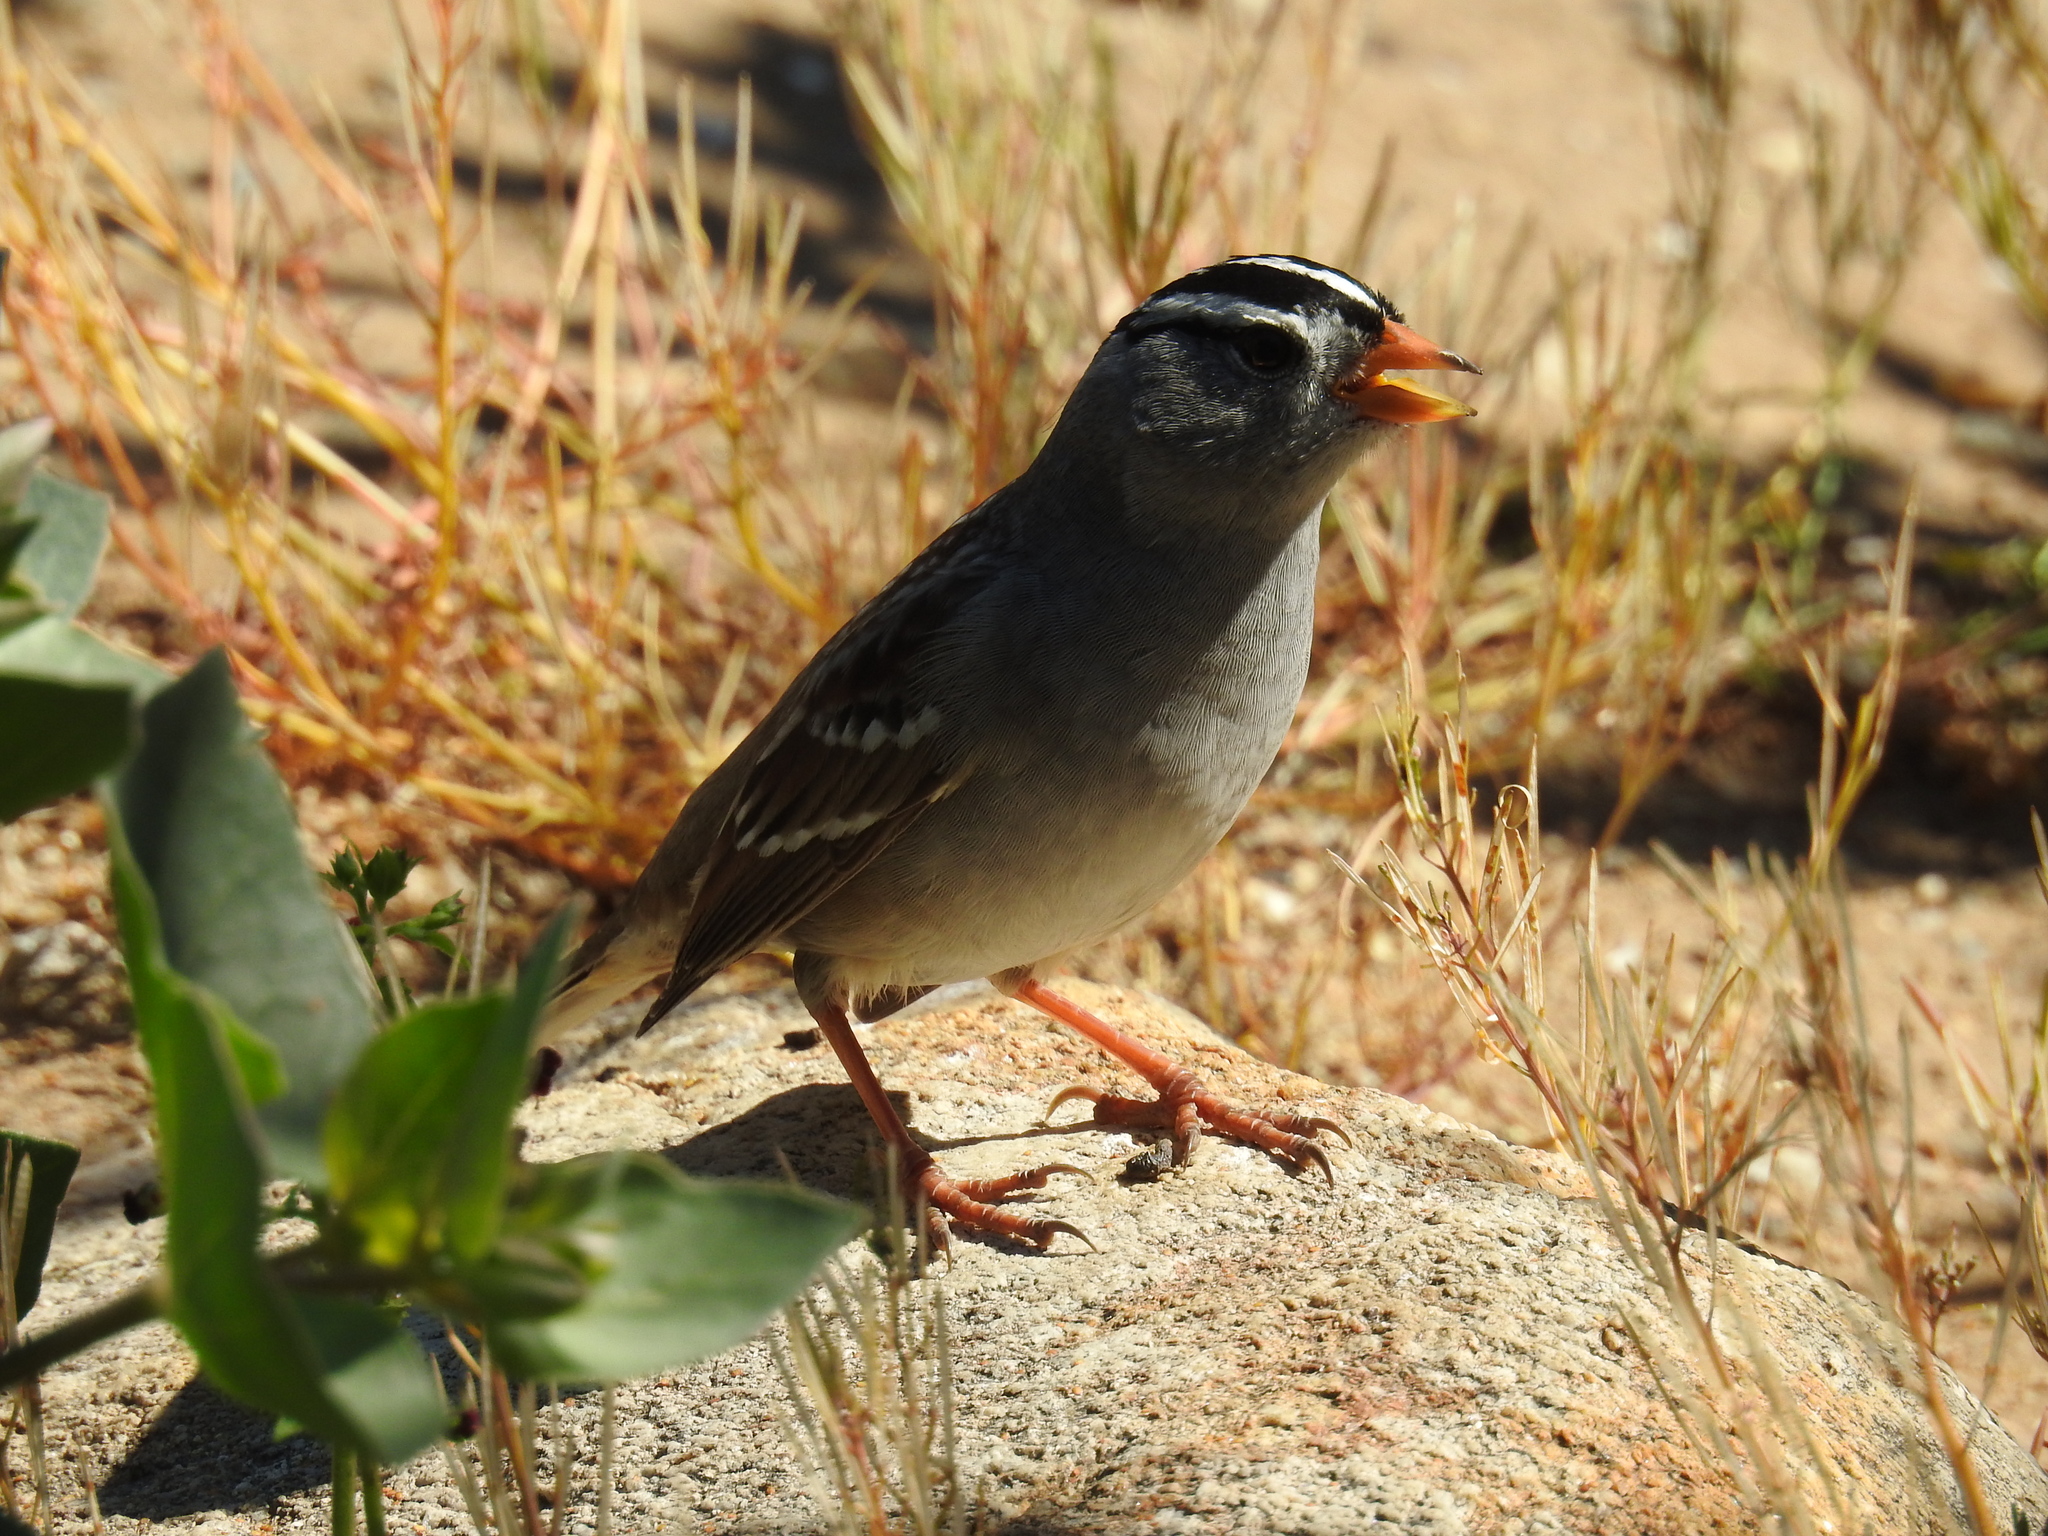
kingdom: Animalia
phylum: Chordata
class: Aves
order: Passeriformes
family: Passerellidae
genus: Zonotrichia
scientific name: Zonotrichia leucophrys
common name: White-crowned sparrow
